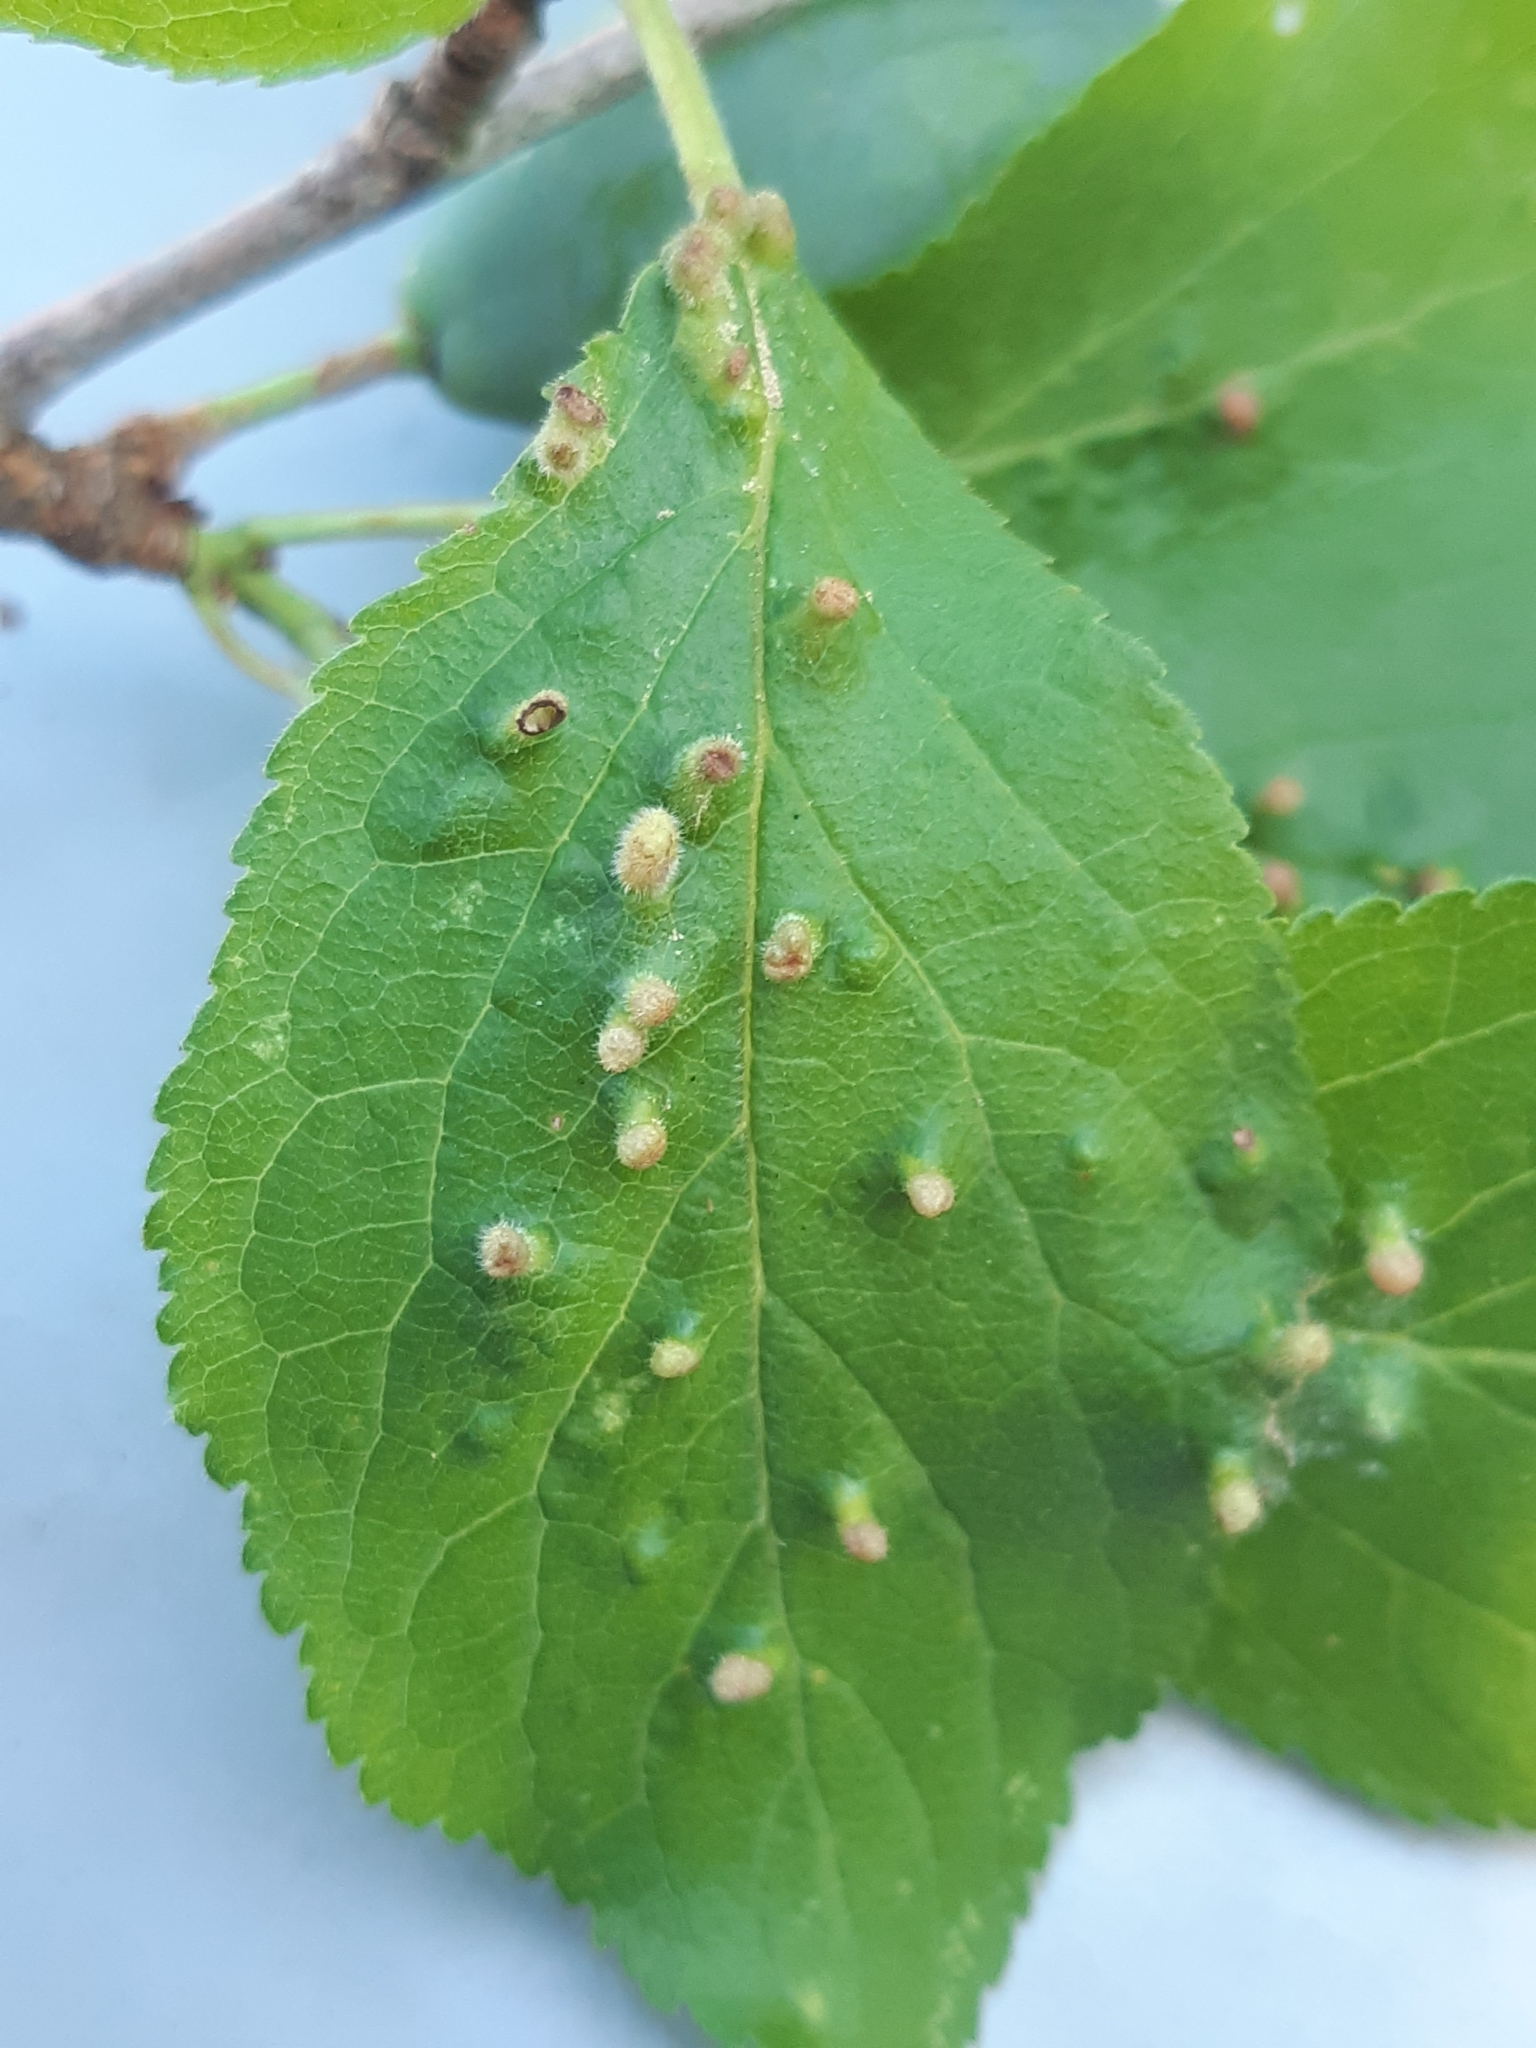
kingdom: Animalia
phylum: Arthropoda
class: Arachnida
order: Trombidiformes
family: Eriophyidae
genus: Phyllocoptes
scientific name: Phyllocoptes eupadi
